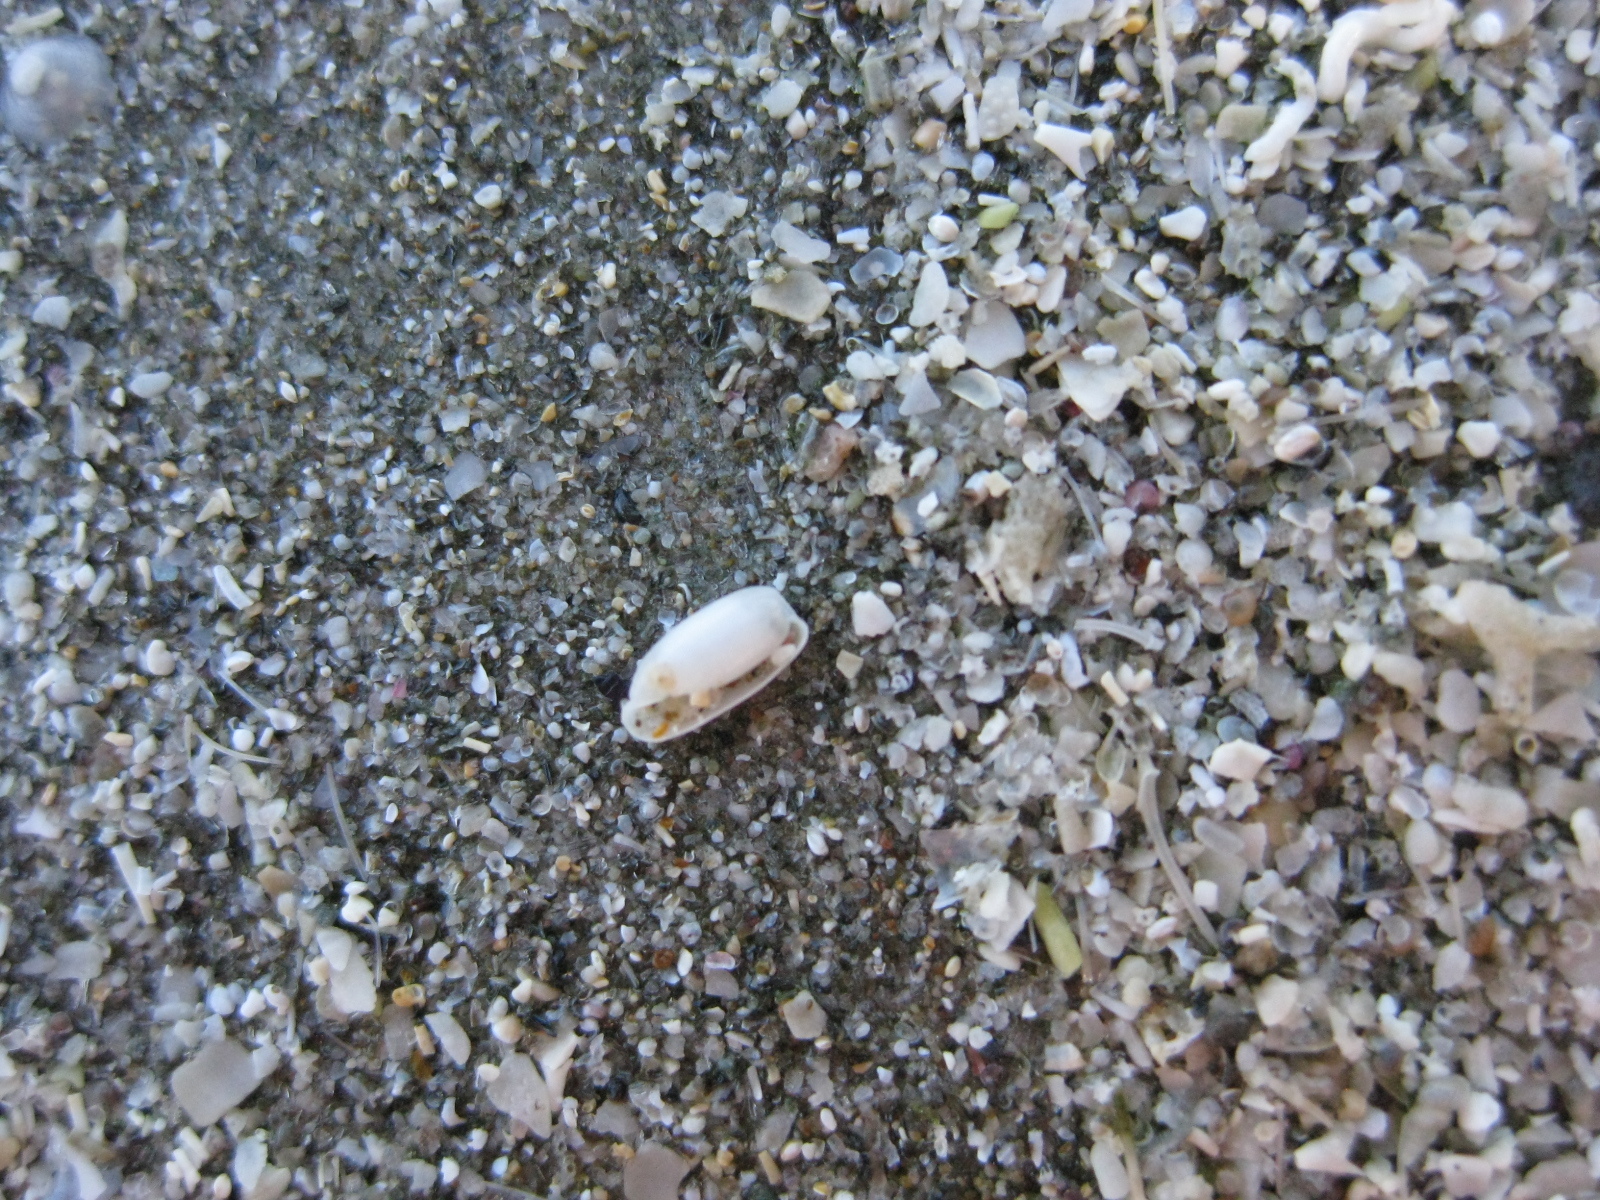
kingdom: Animalia
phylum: Mollusca
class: Gastropoda
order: Cephalaspidea
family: Cylichnidae
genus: Cylichna
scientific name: Cylichna zealandica
